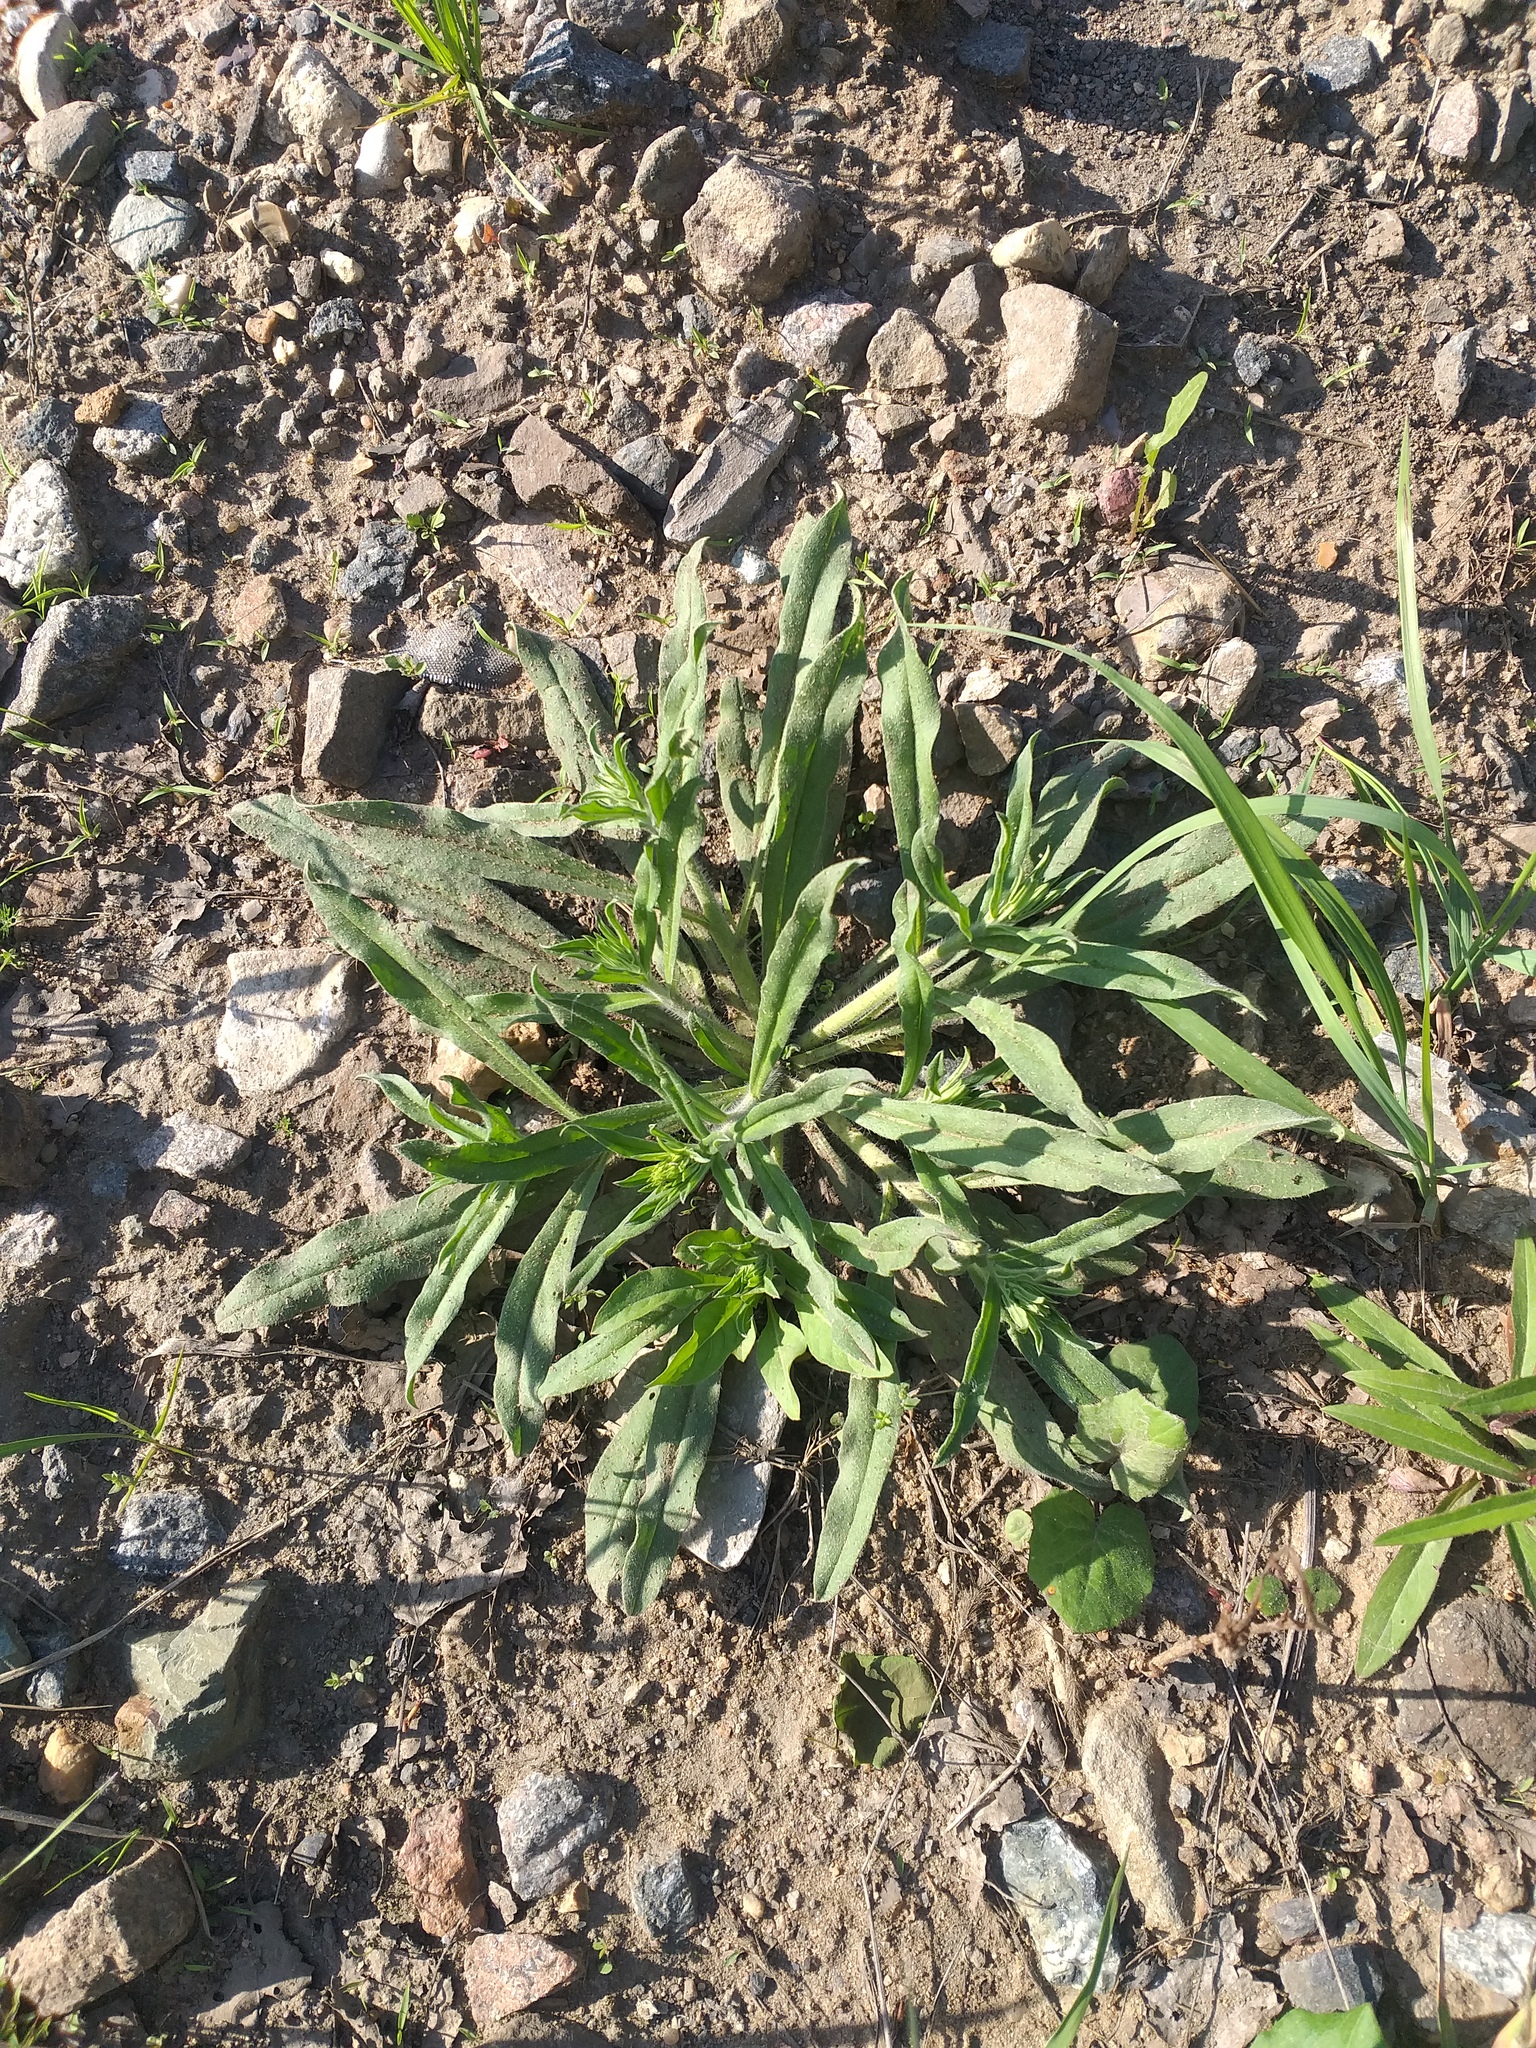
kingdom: Plantae
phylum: Tracheophyta
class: Magnoliopsida
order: Boraginales
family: Boraginaceae
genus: Echium
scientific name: Echium vulgare
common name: Common viper's bugloss
